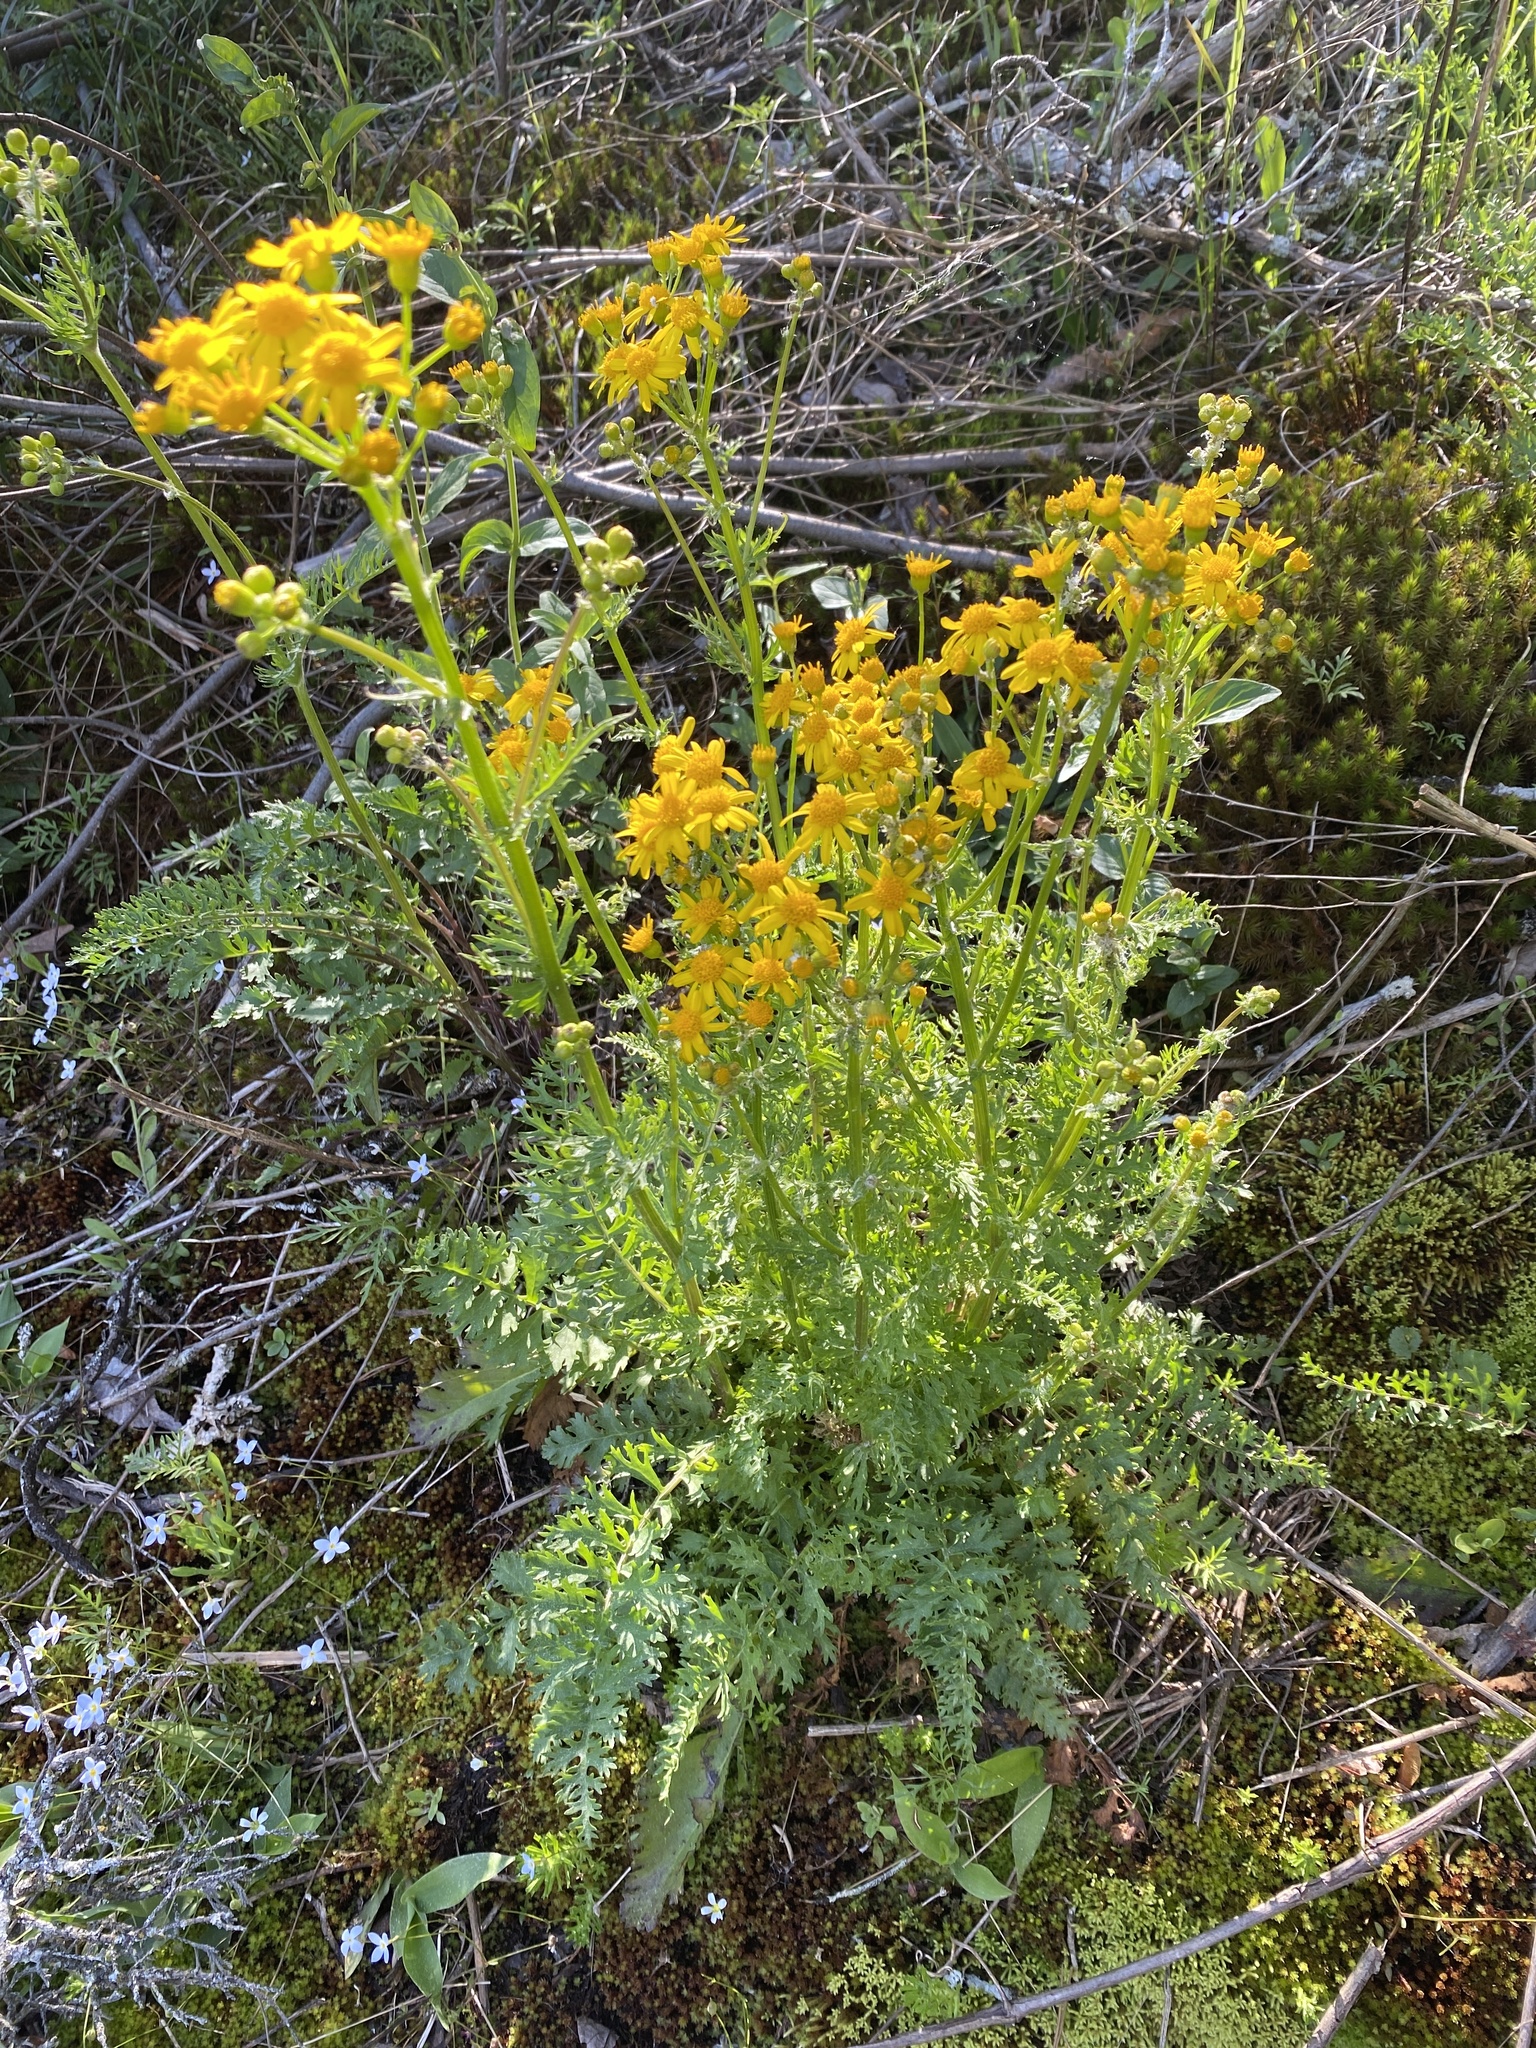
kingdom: Plantae
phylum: Tracheophyta
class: Magnoliopsida
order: Asterales
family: Asteraceae
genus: Packera
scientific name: Packera millefolia
